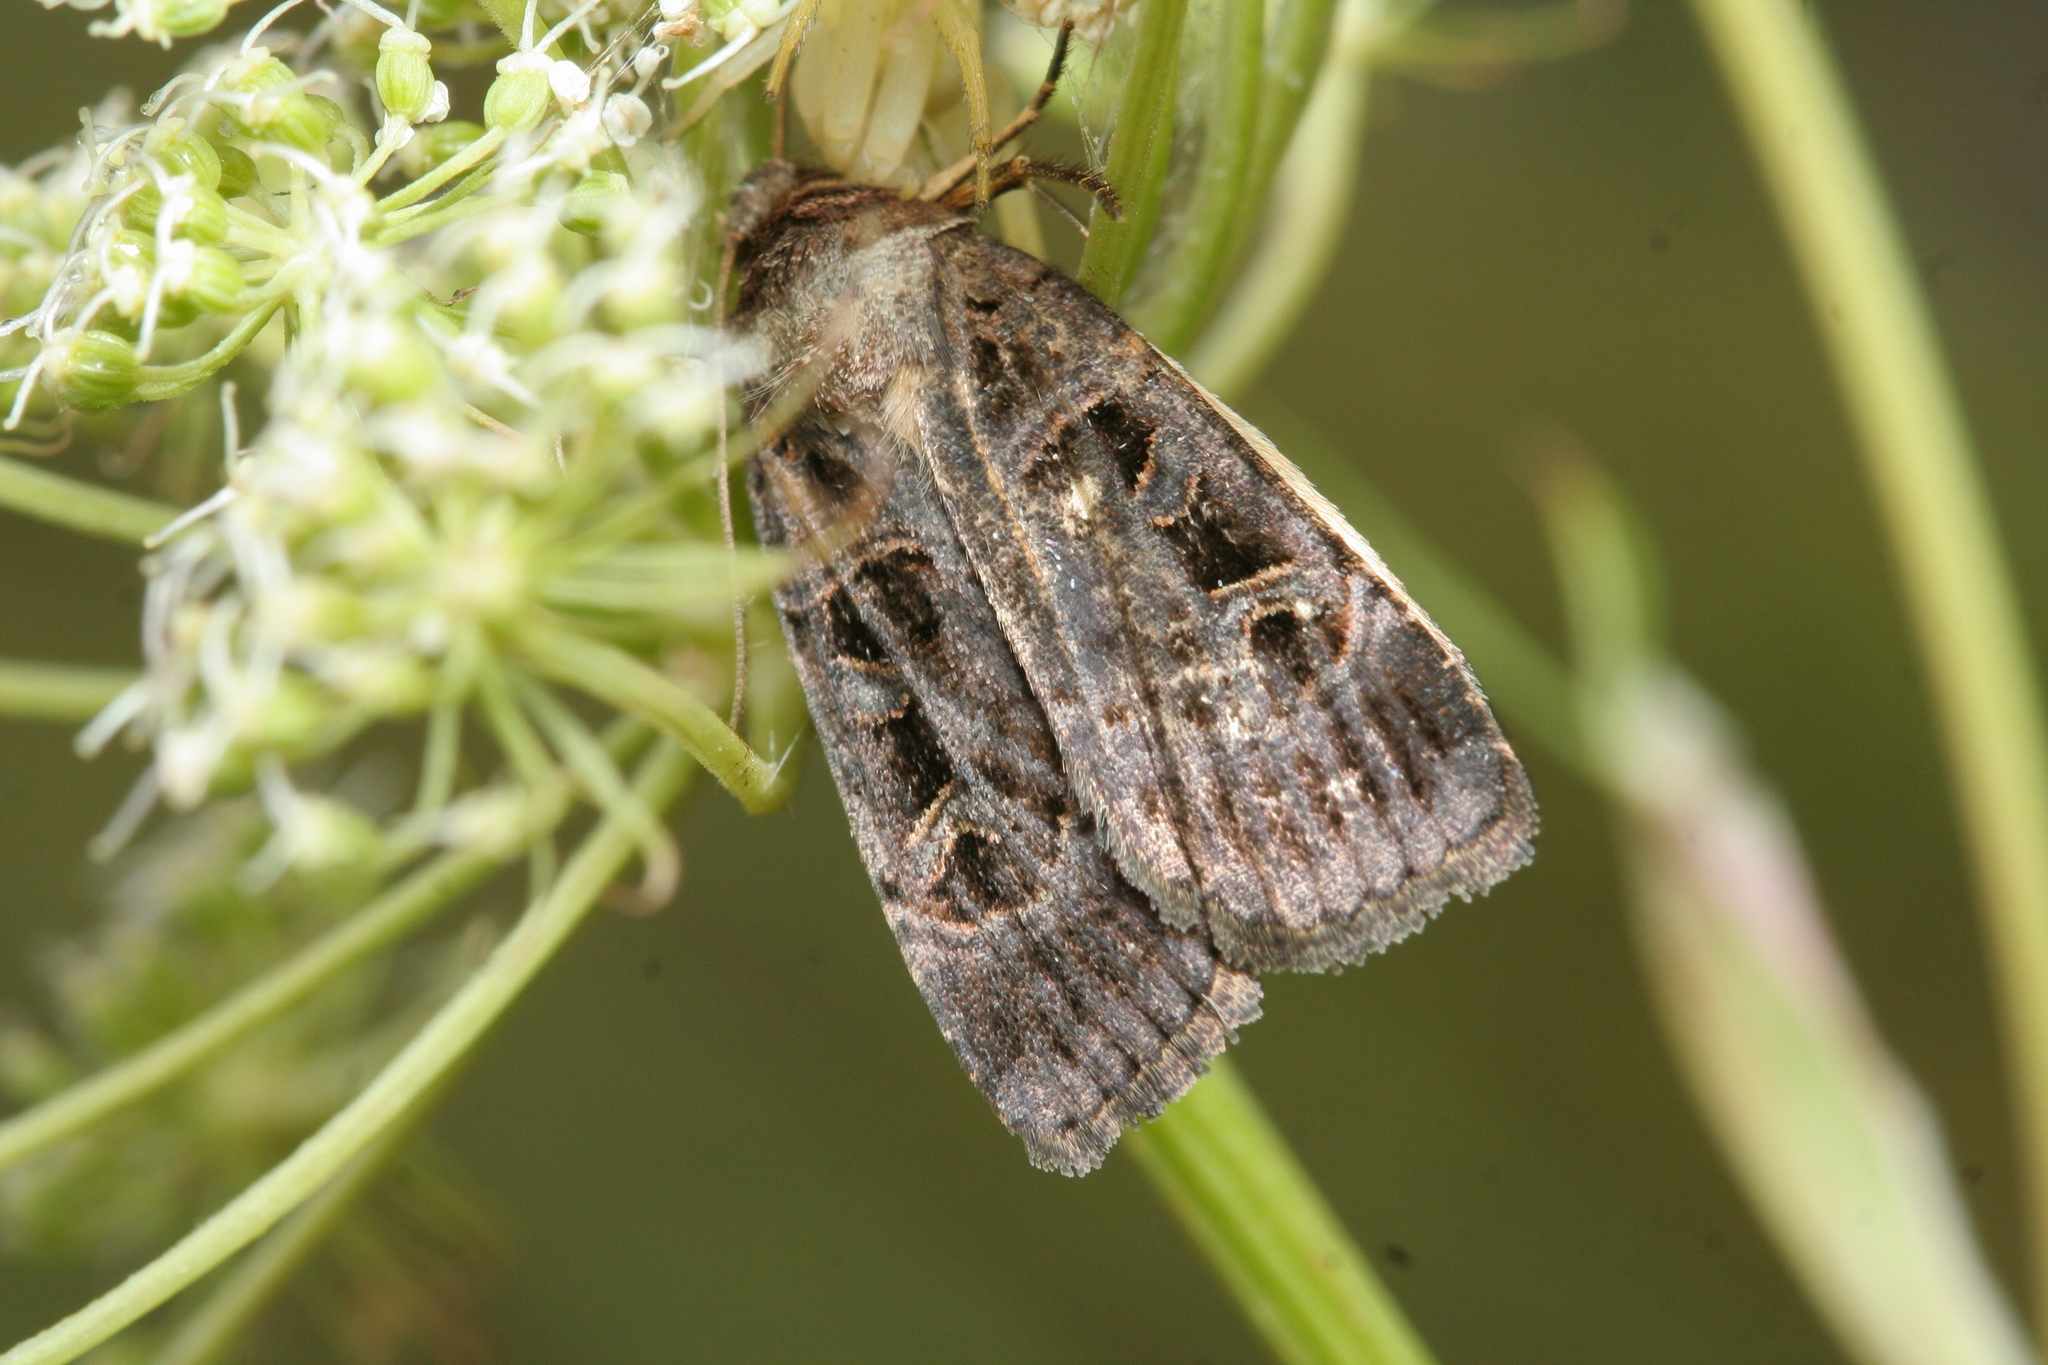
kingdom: Animalia
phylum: Arthropoda
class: Insecta
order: Lepidoptera
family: Noctuidae
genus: Pseudohermonassa
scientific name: Pseudohermonassa melancholica
